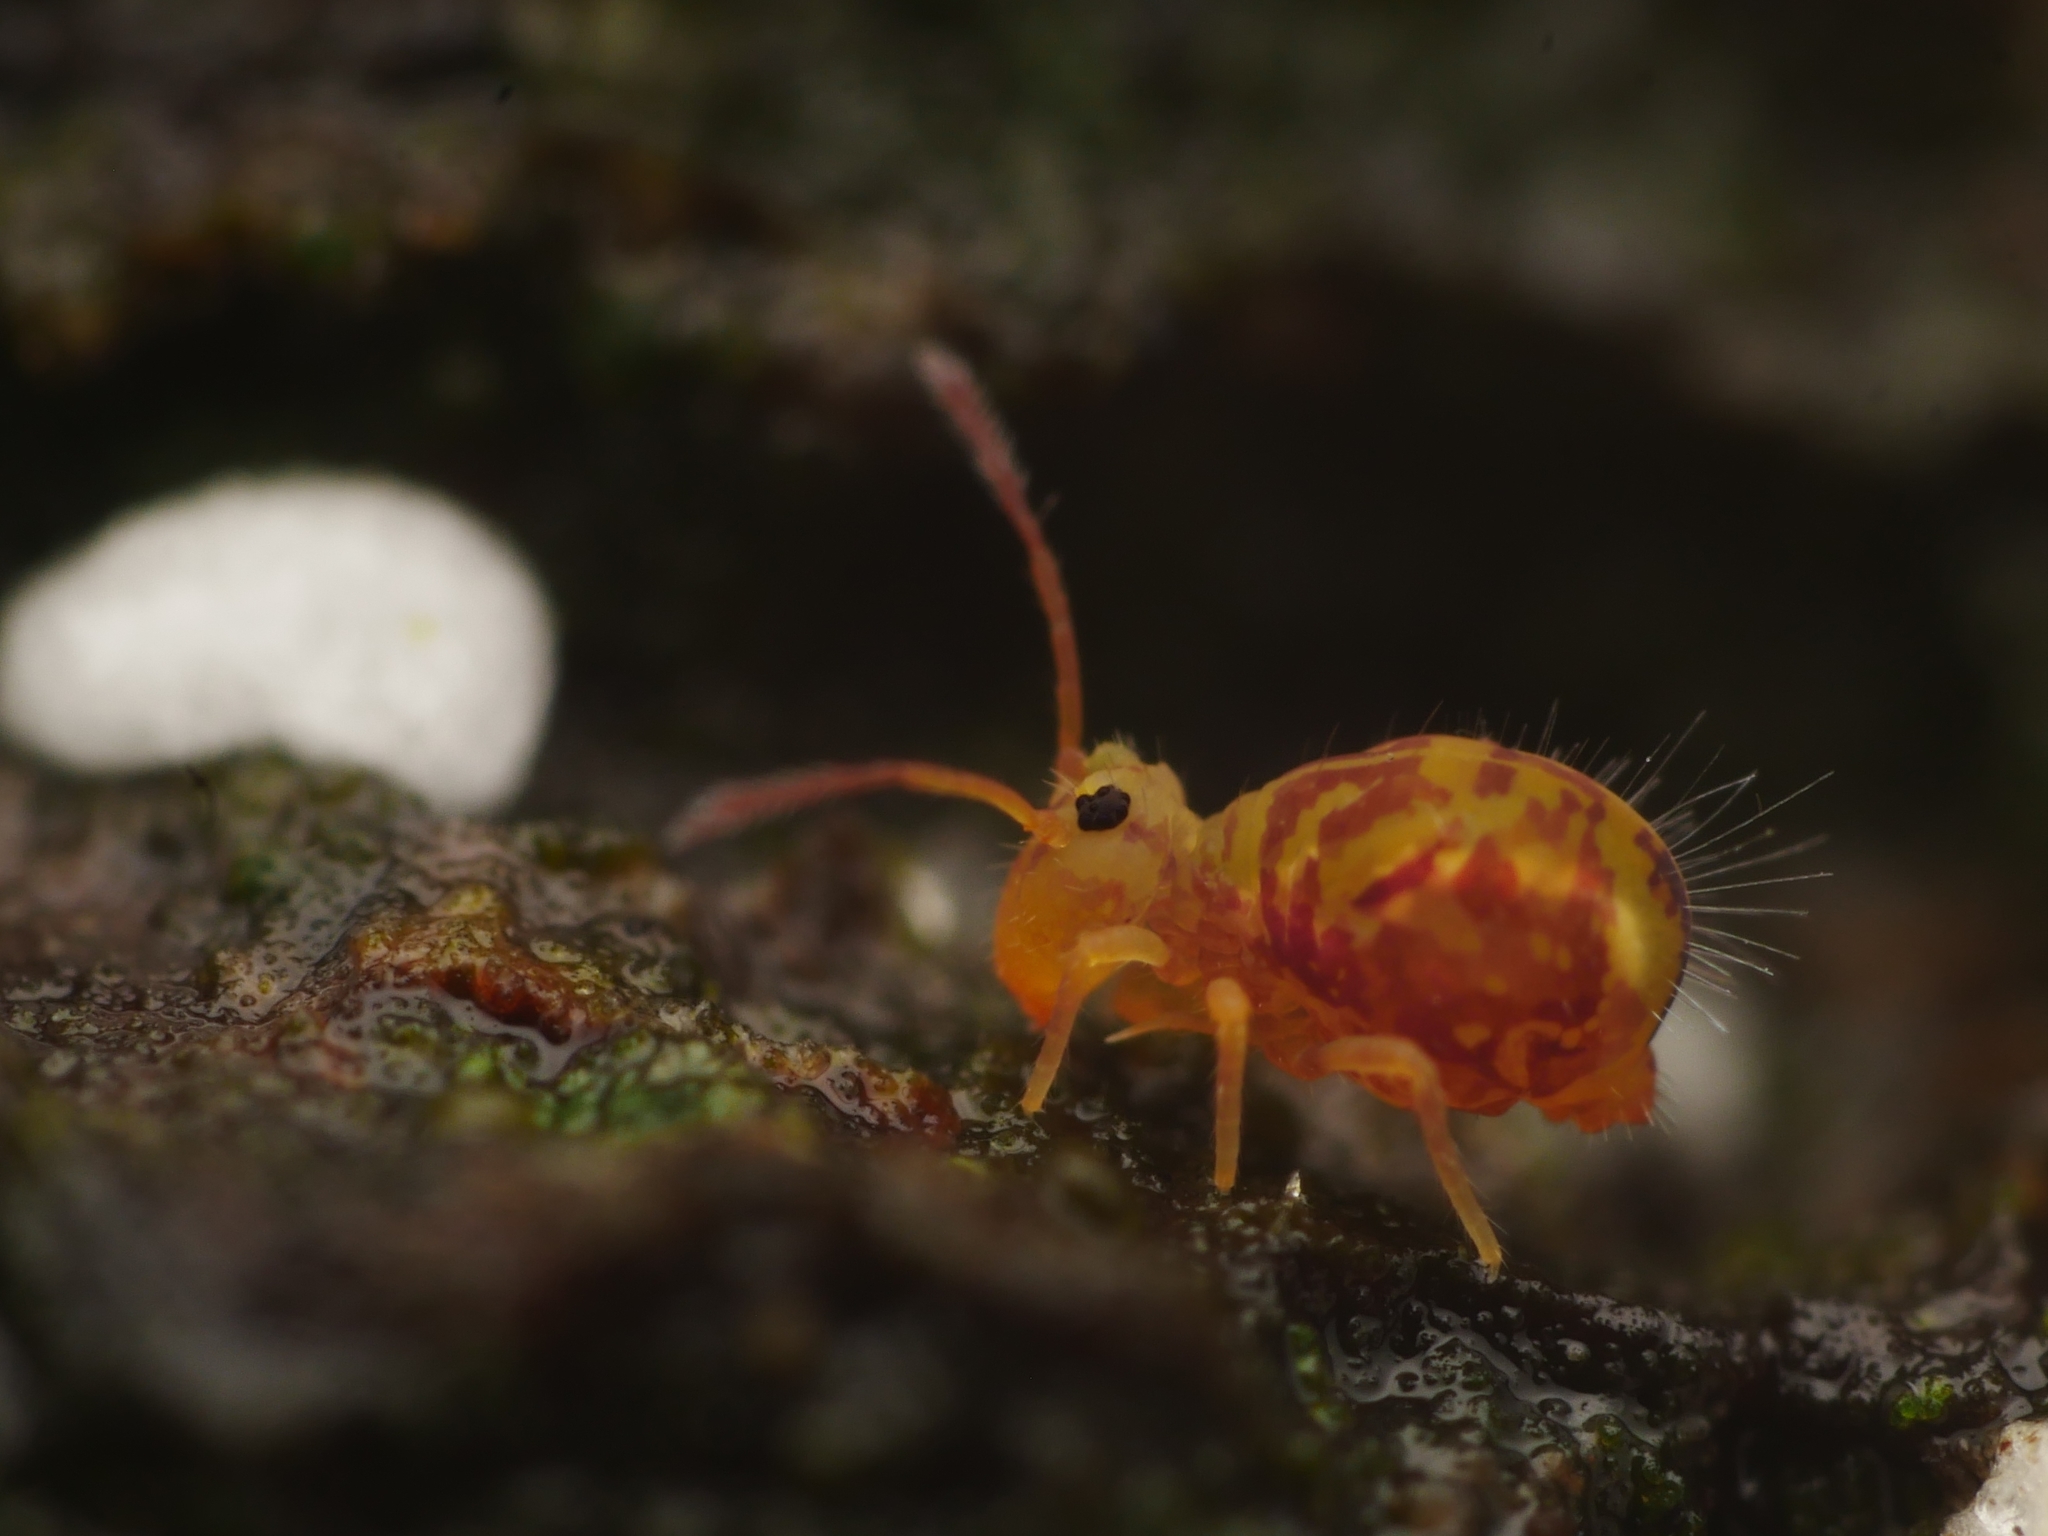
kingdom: Animalia
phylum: Arthropoda
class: Collembola
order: Symphypleona
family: Dicyrtomidae
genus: Dicyrtomina
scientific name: Dicyrtomina ornata
